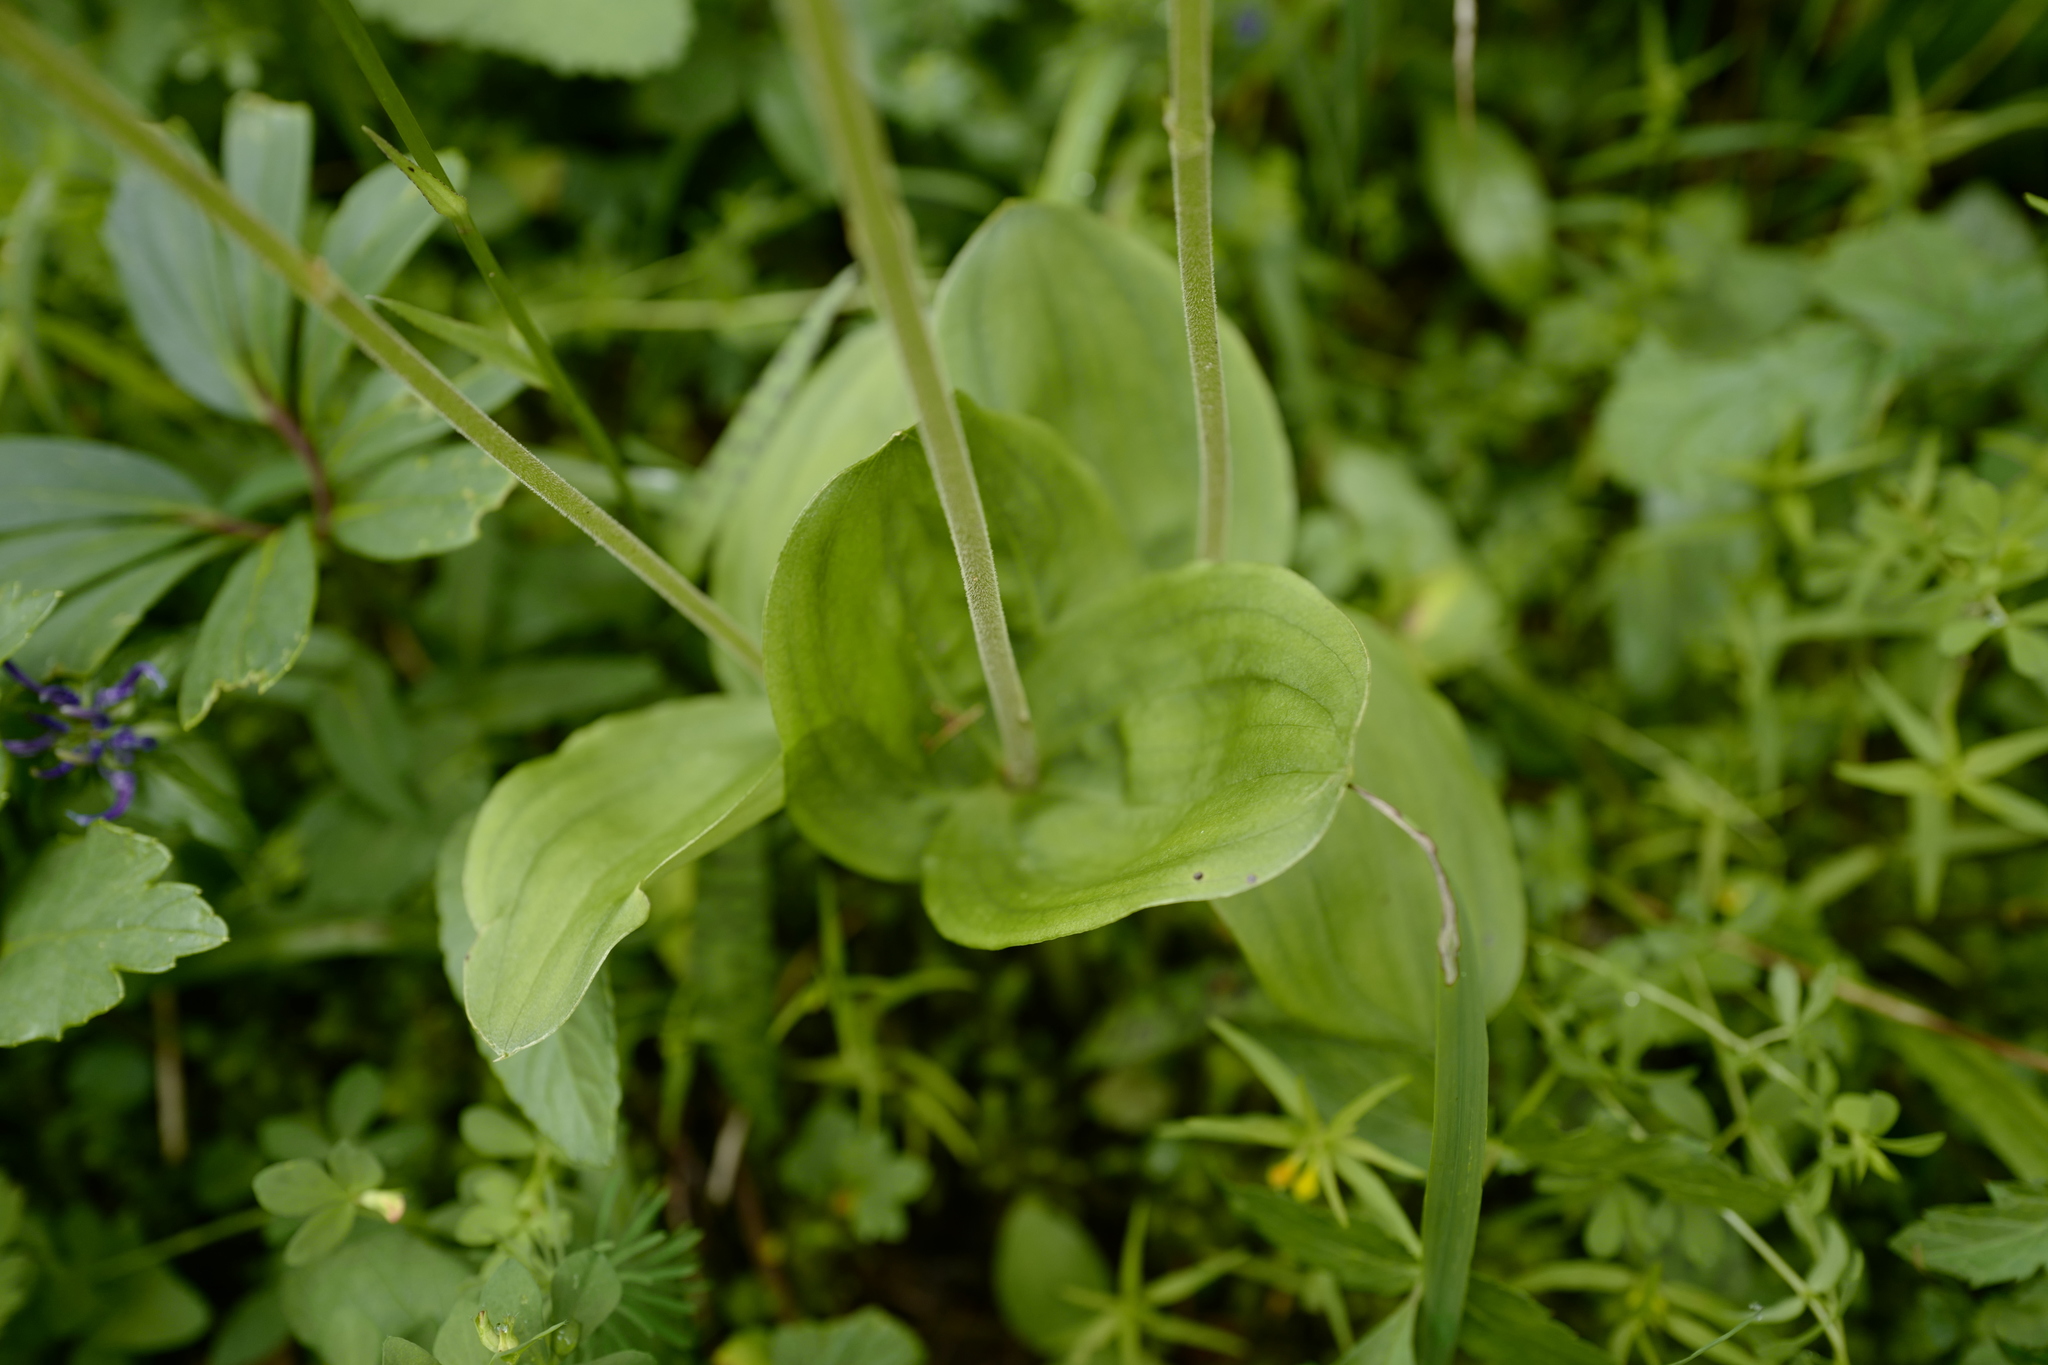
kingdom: Plantae
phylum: Tracheophyta
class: Liliopsida
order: Asparagales
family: Orchidaceae
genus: Neottia
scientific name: Neottia ovata
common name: Common twayblade
